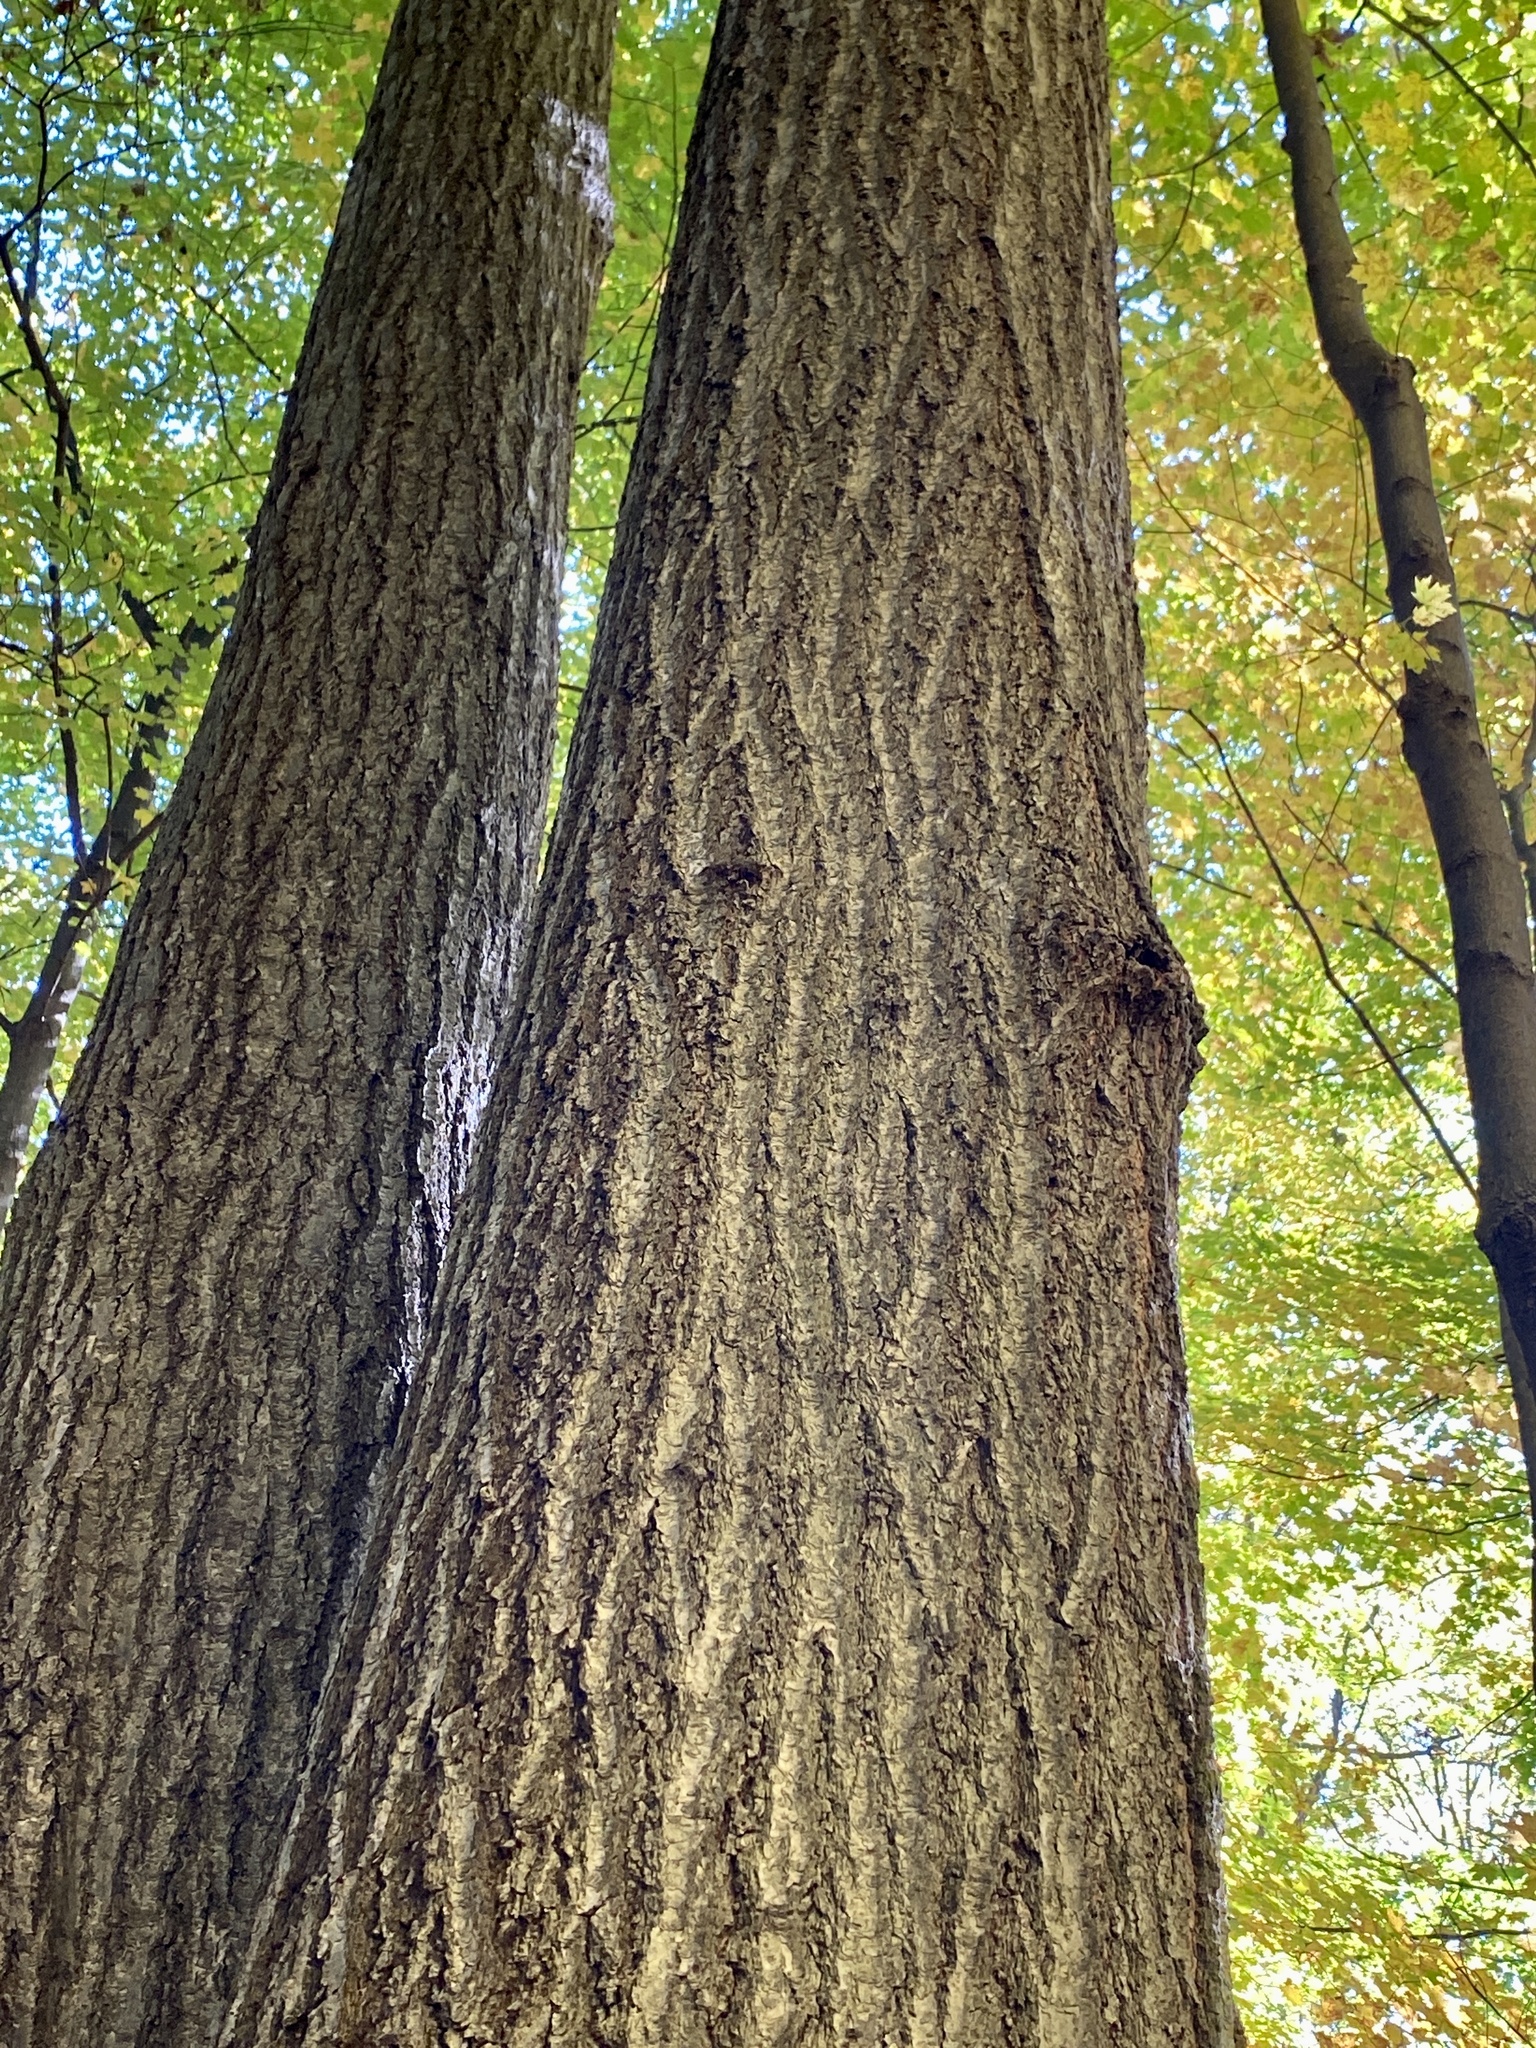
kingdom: Plantae
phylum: Tracheophyta
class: Magnoliopsida
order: Fagales
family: Fagaceae
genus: Quercus
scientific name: Quercus rubra
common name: Red oak
